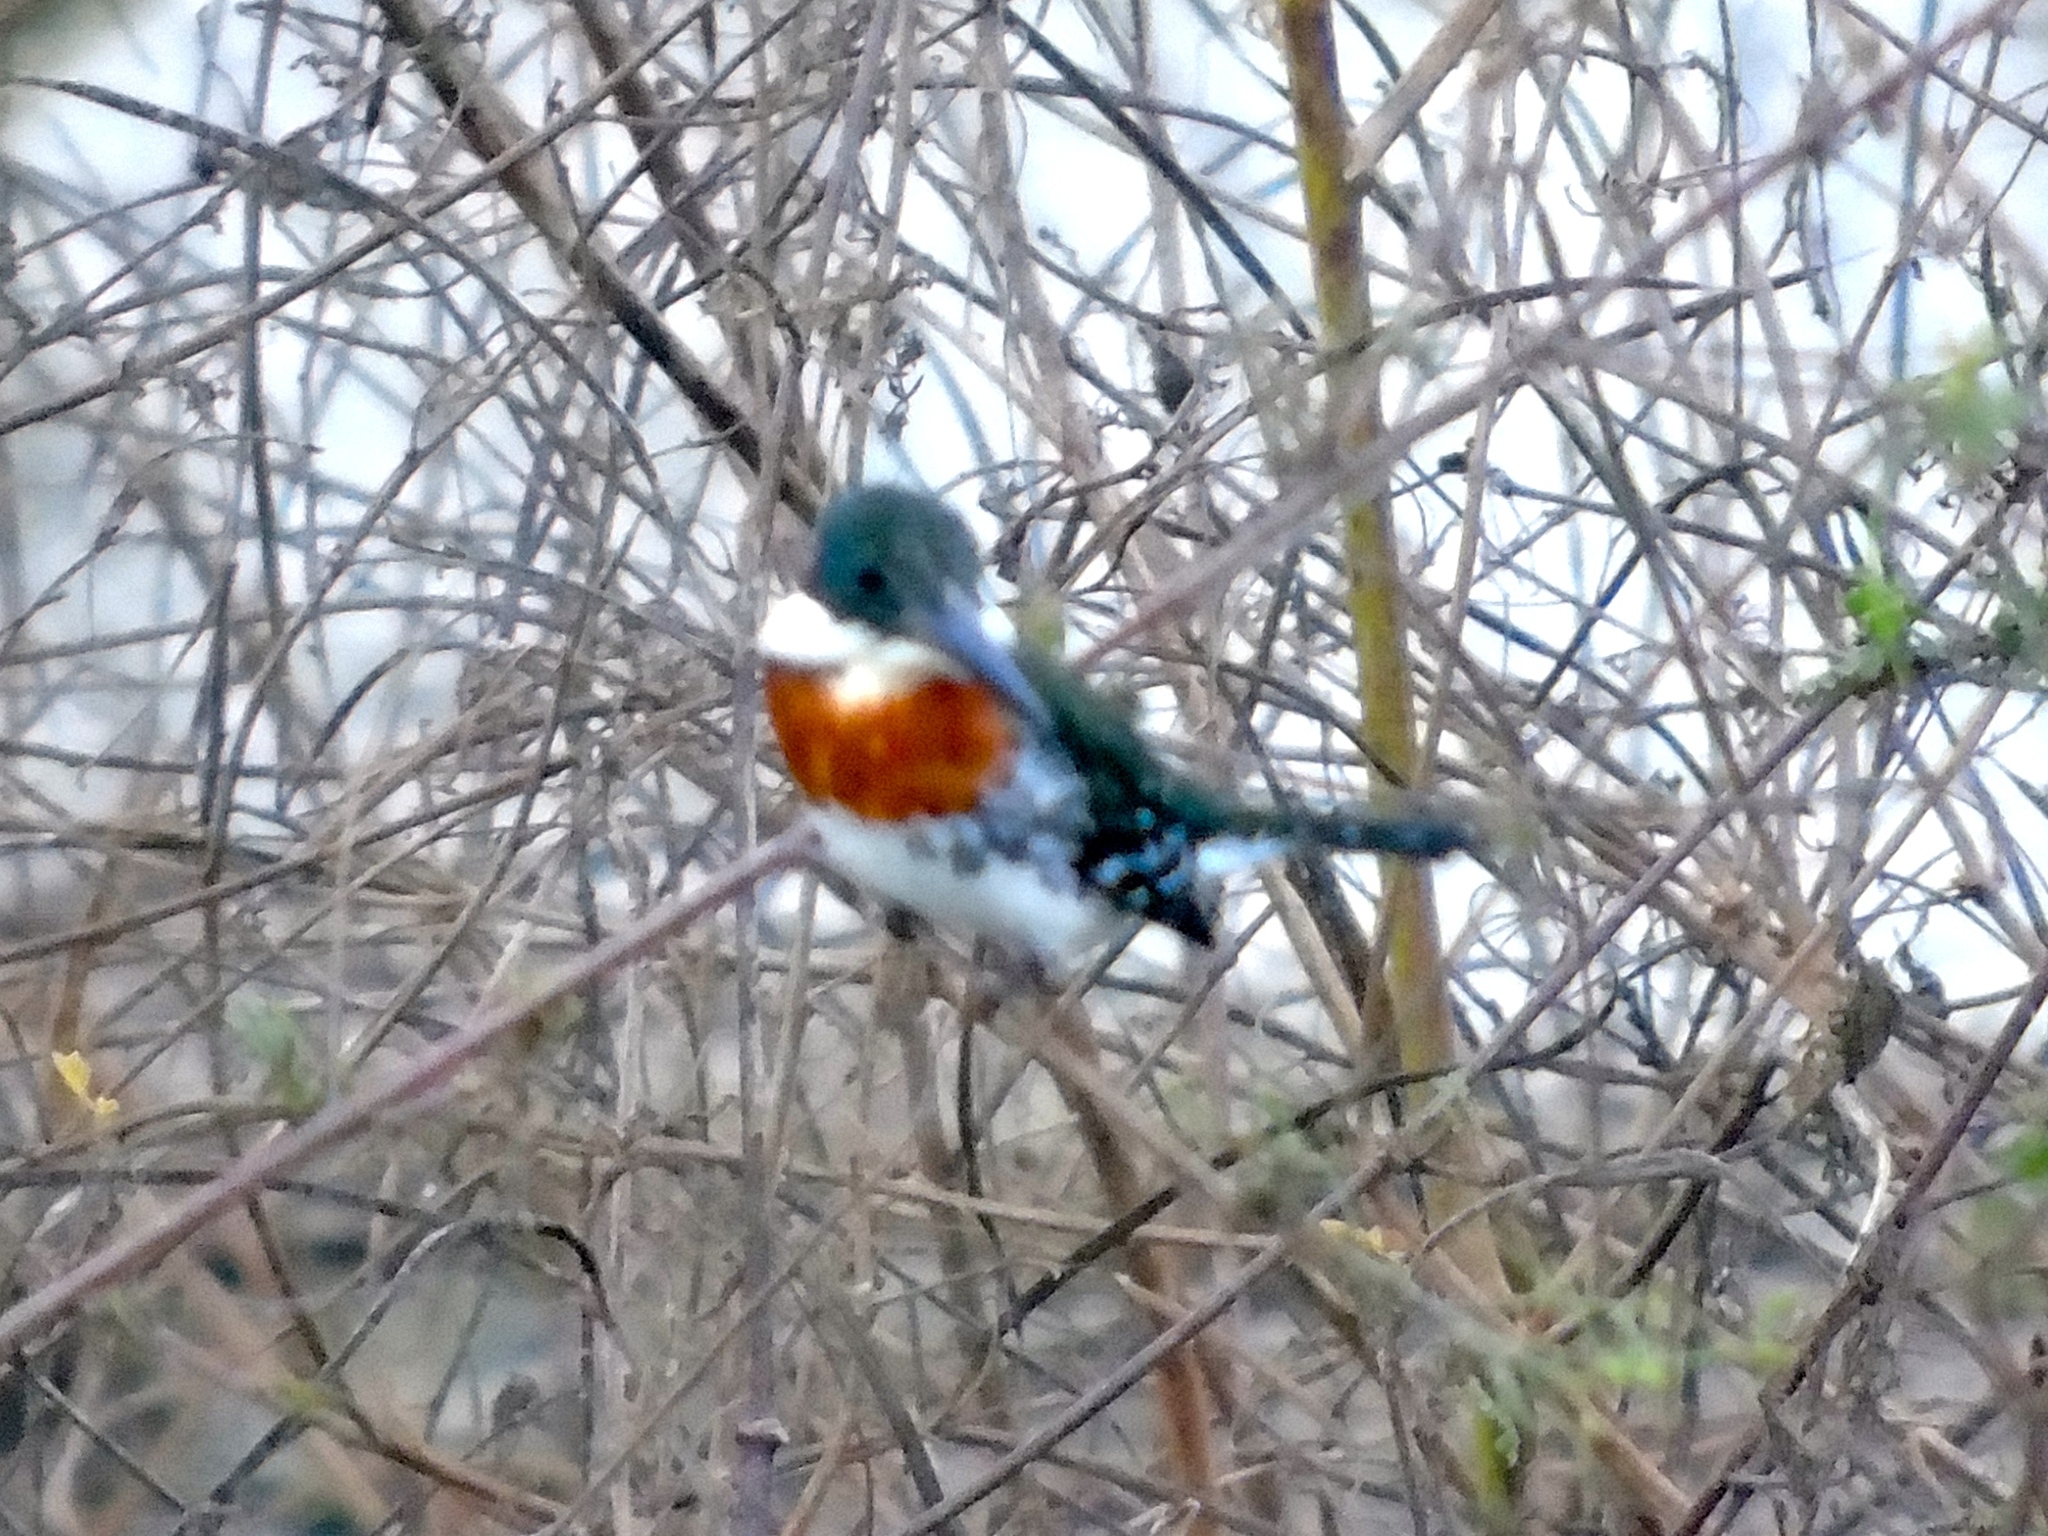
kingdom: Animalia
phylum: Chordata
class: Aves
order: Coraciiformes
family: Alcedinidae
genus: Chloroceryle
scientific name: Chloroceryle americana
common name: Green kingfisher
